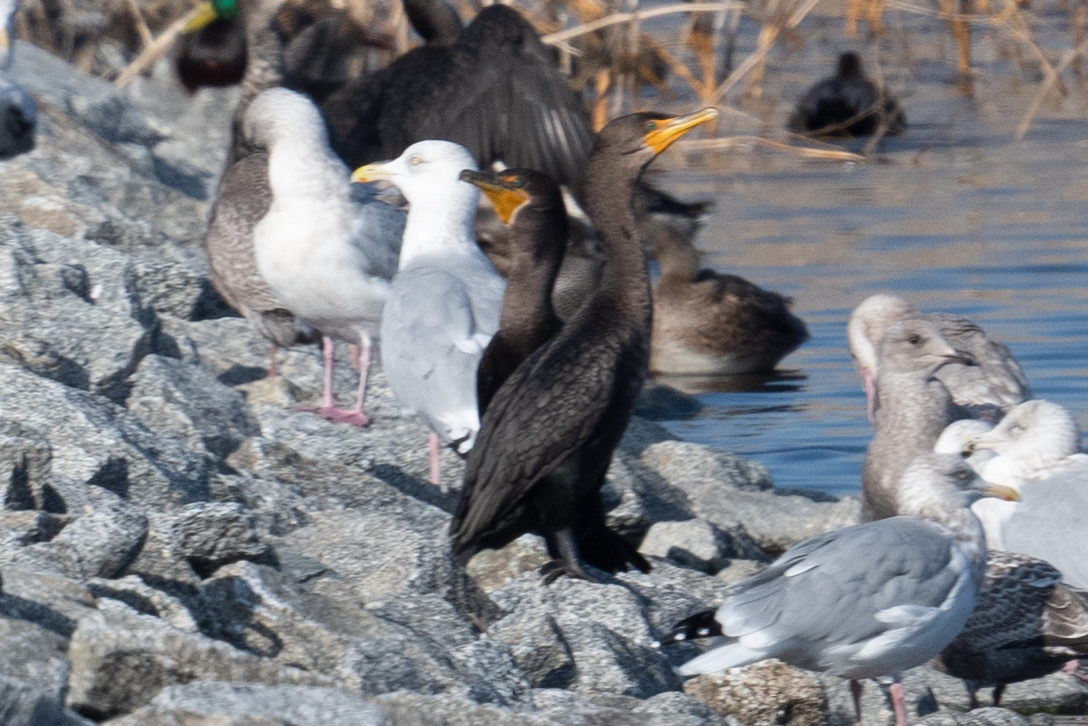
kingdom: Animalia
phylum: Chordata
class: Aves
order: Suliformes
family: Phalacrocoracidae
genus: Phalacrocorax
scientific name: Phalacrocorax auritus
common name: Double-crested cormorant
